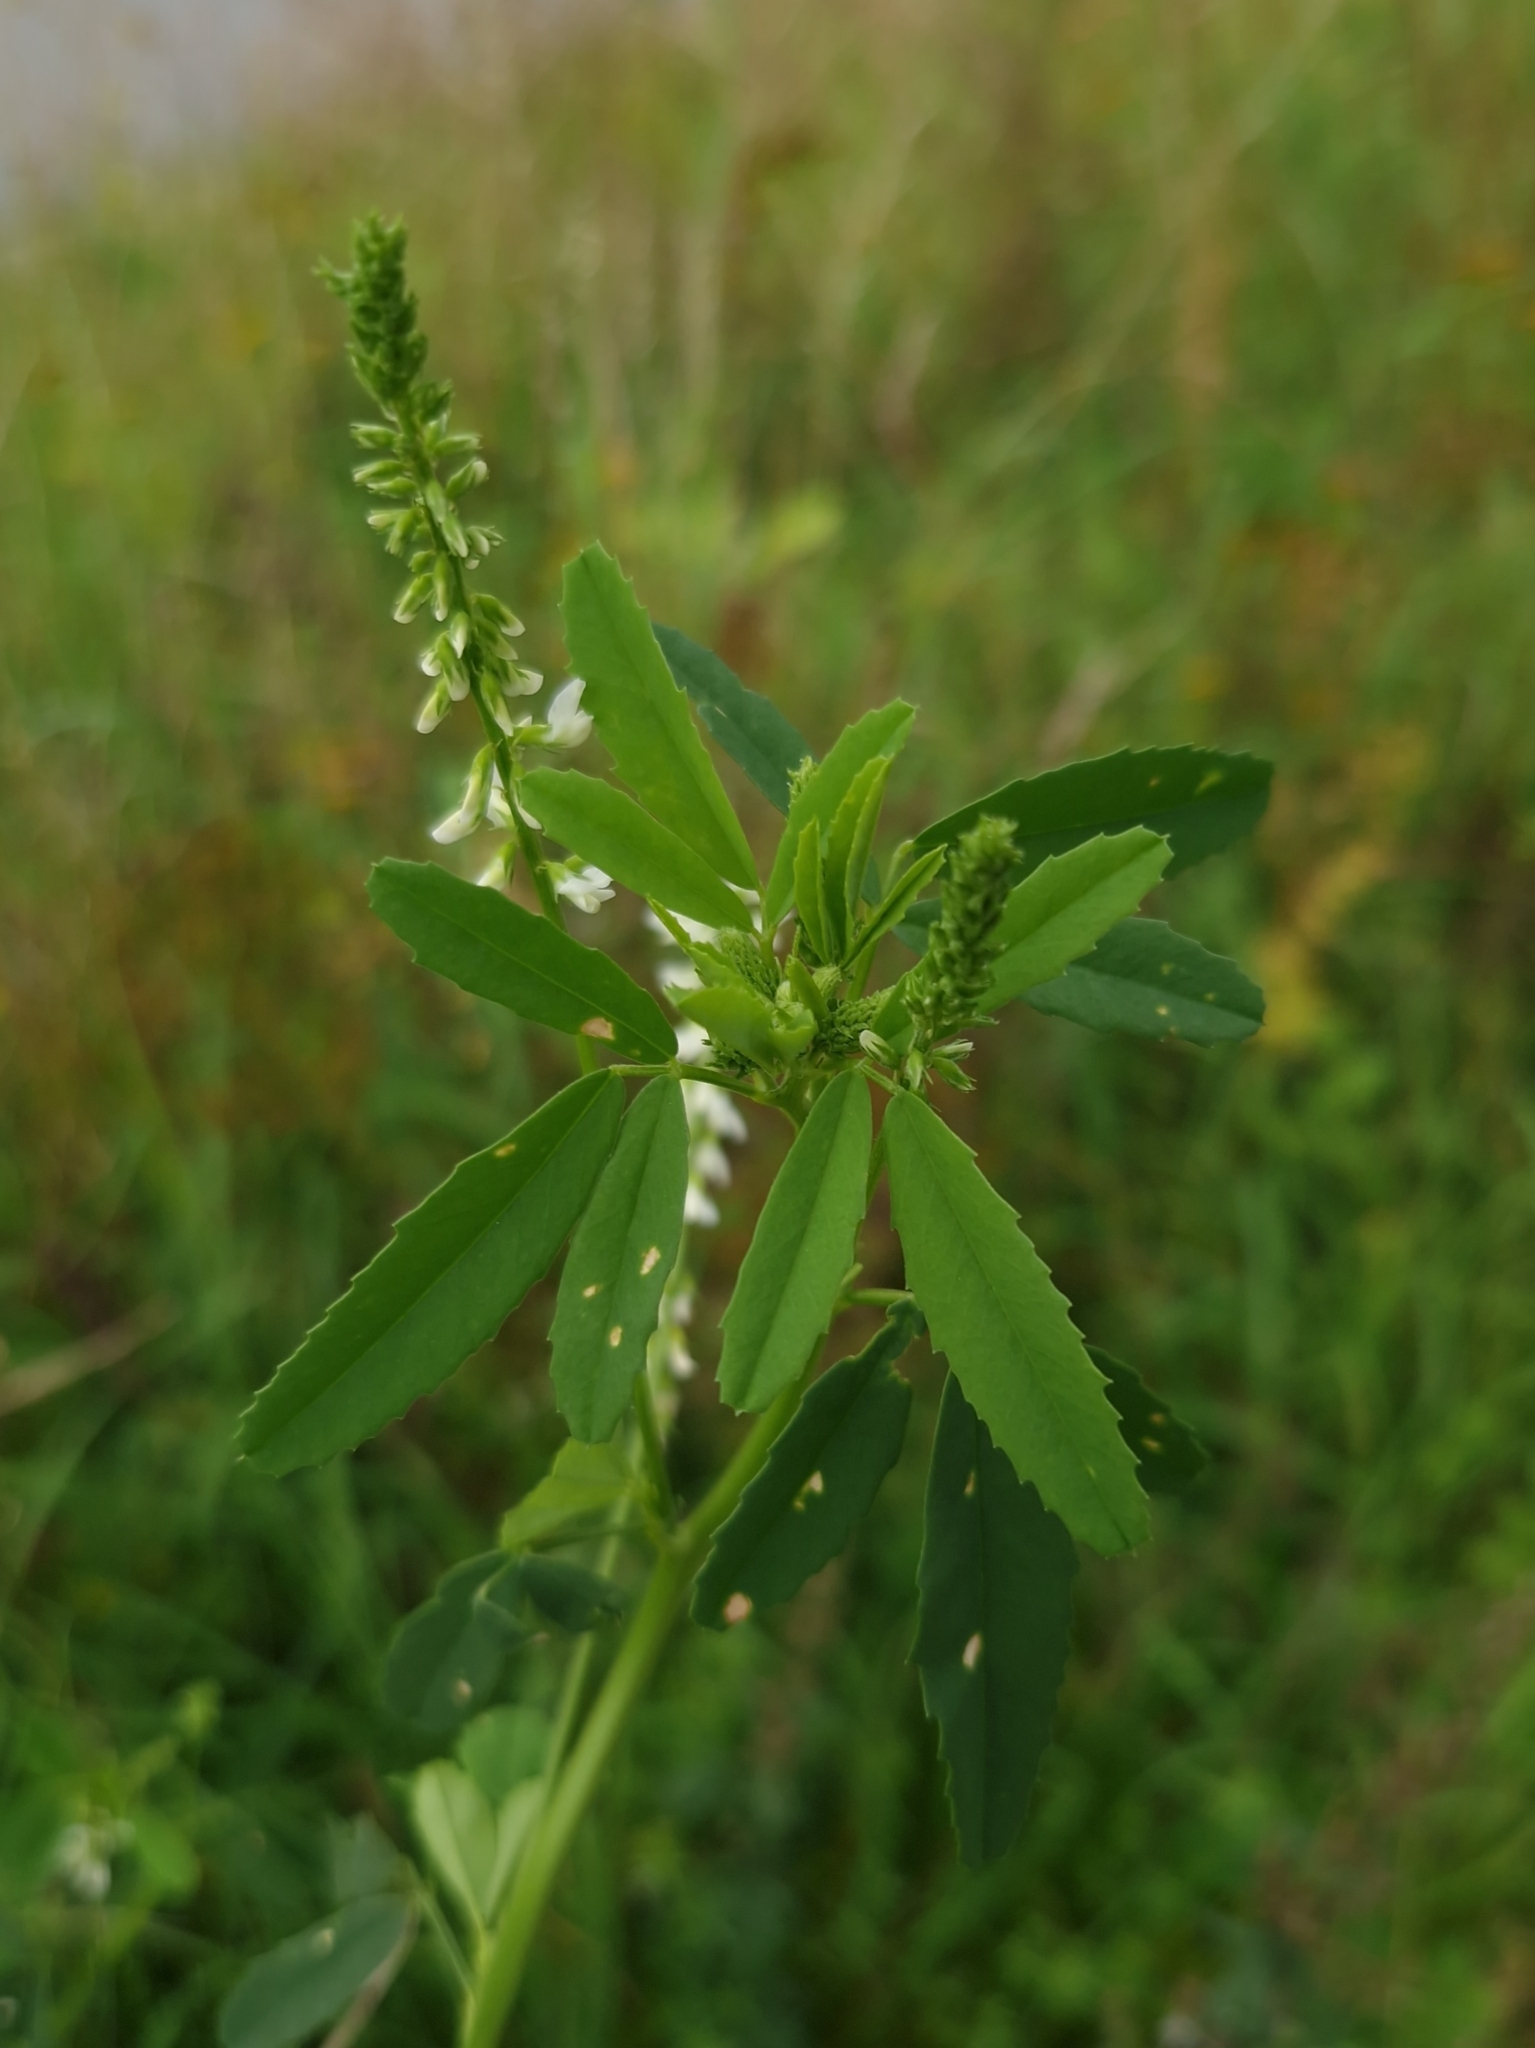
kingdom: Plantae
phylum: Tracheophyta
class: Magnoliopsida
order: Fabales
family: Fabaceae
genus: Melilotus
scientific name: Melilotus albus
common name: White melilot
